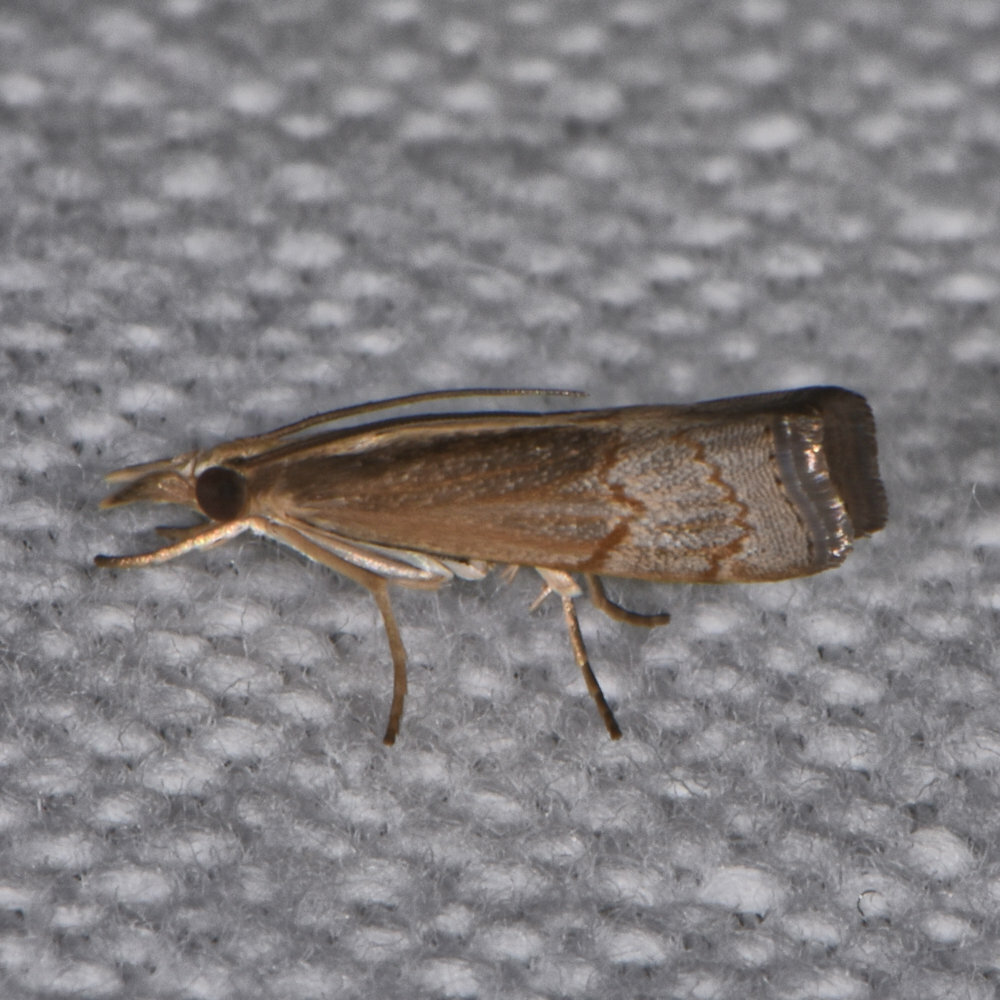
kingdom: Animalia
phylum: Arthropoda
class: Insecta
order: Lepidoptera
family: Crambidae
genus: Parapediasia
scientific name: Parapediasia tenuistrigatus
